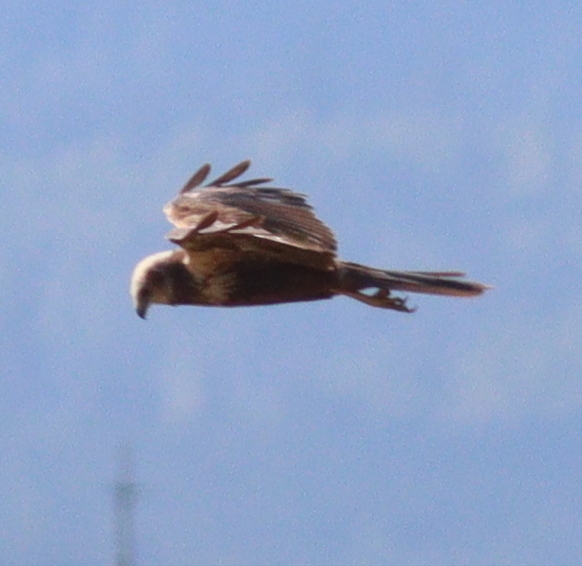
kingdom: Animalia
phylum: Chordata
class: Aves
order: Accipitriformes
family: Accipitridae
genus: Circus
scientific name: Circus aeruginosus
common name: Western marsh harrier
